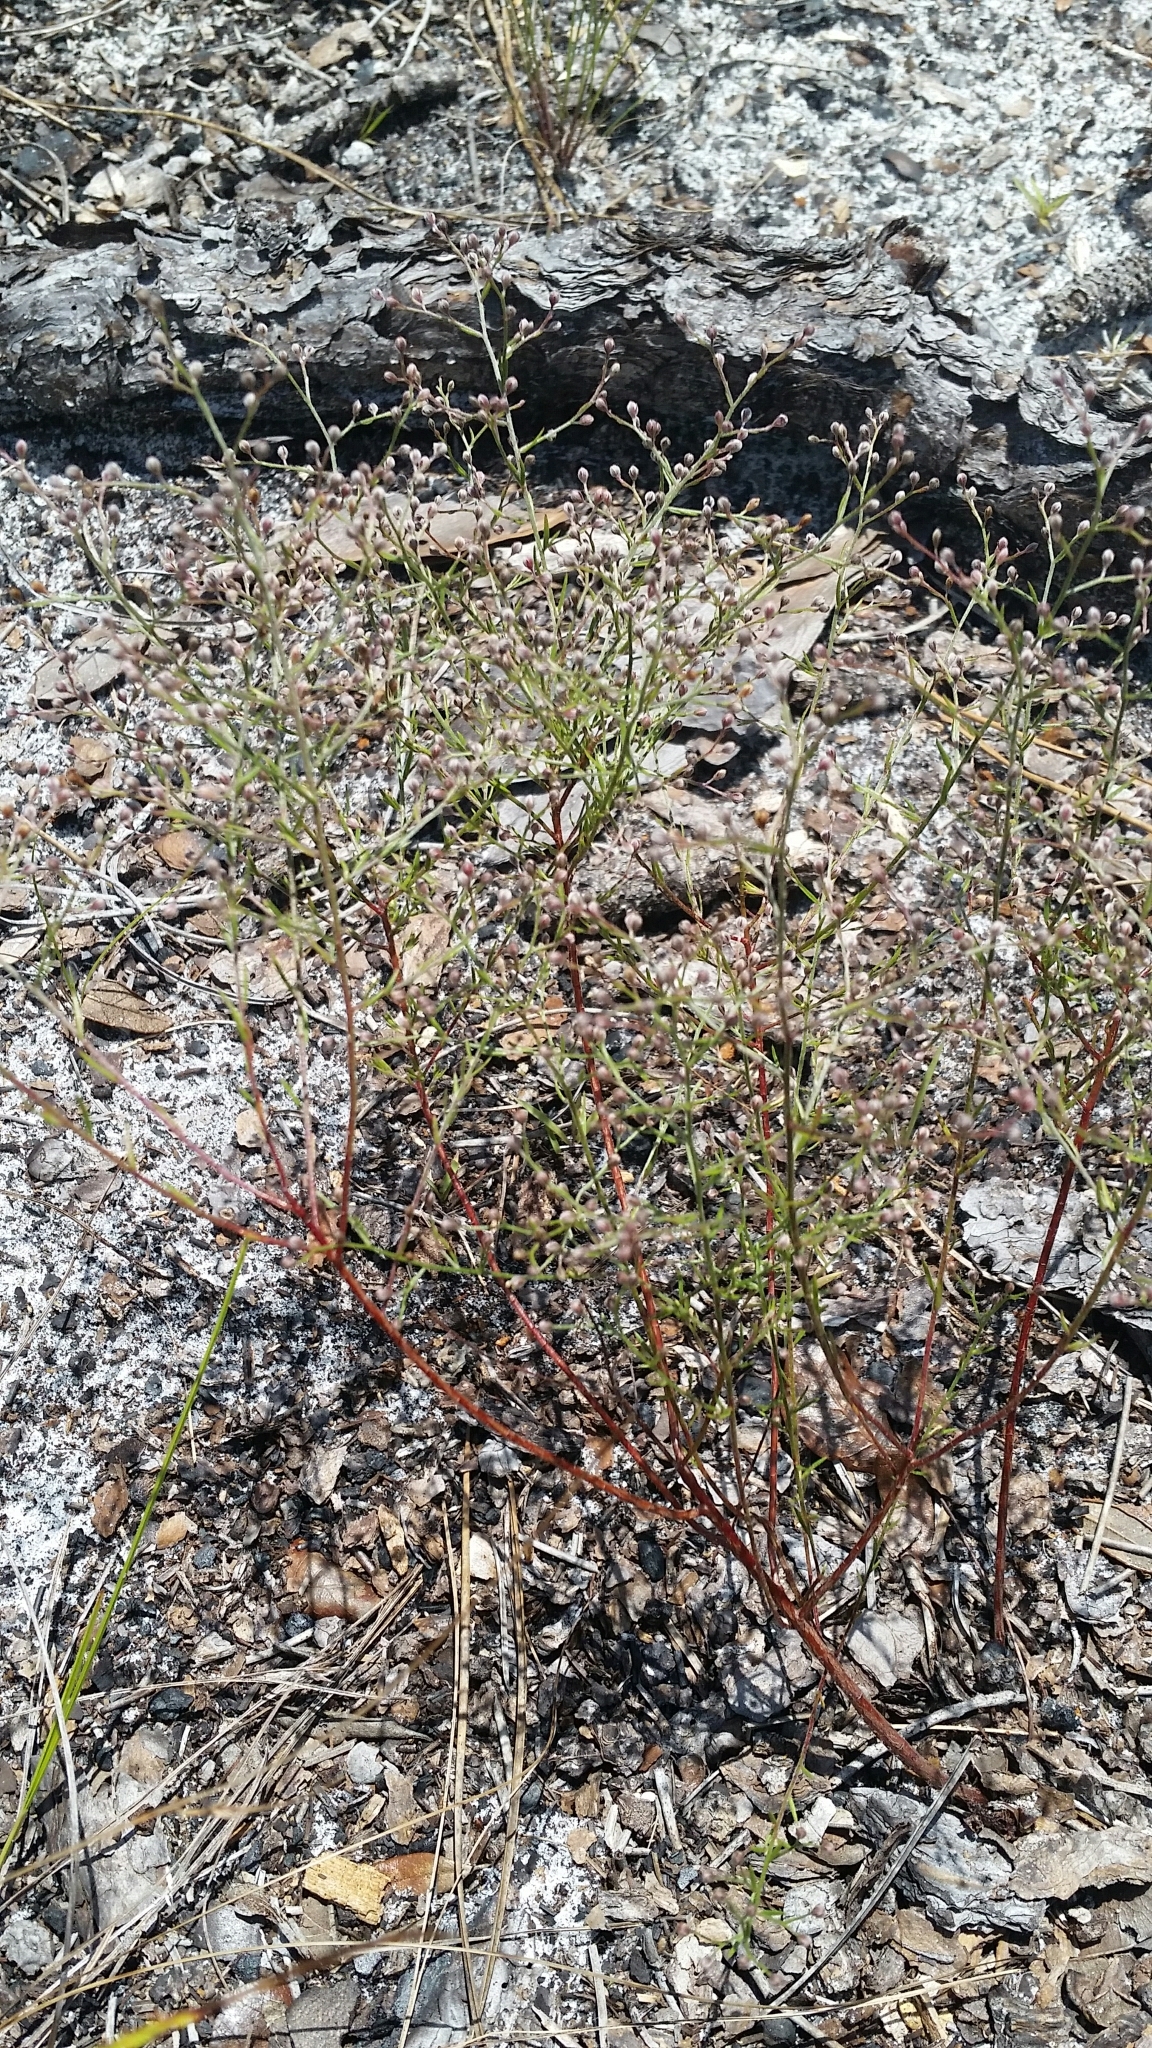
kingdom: Plantae
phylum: Tracheophyta
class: Magnoliopsida
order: Malvales
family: Cistaceae
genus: Lechea
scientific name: Lechea torreyi
